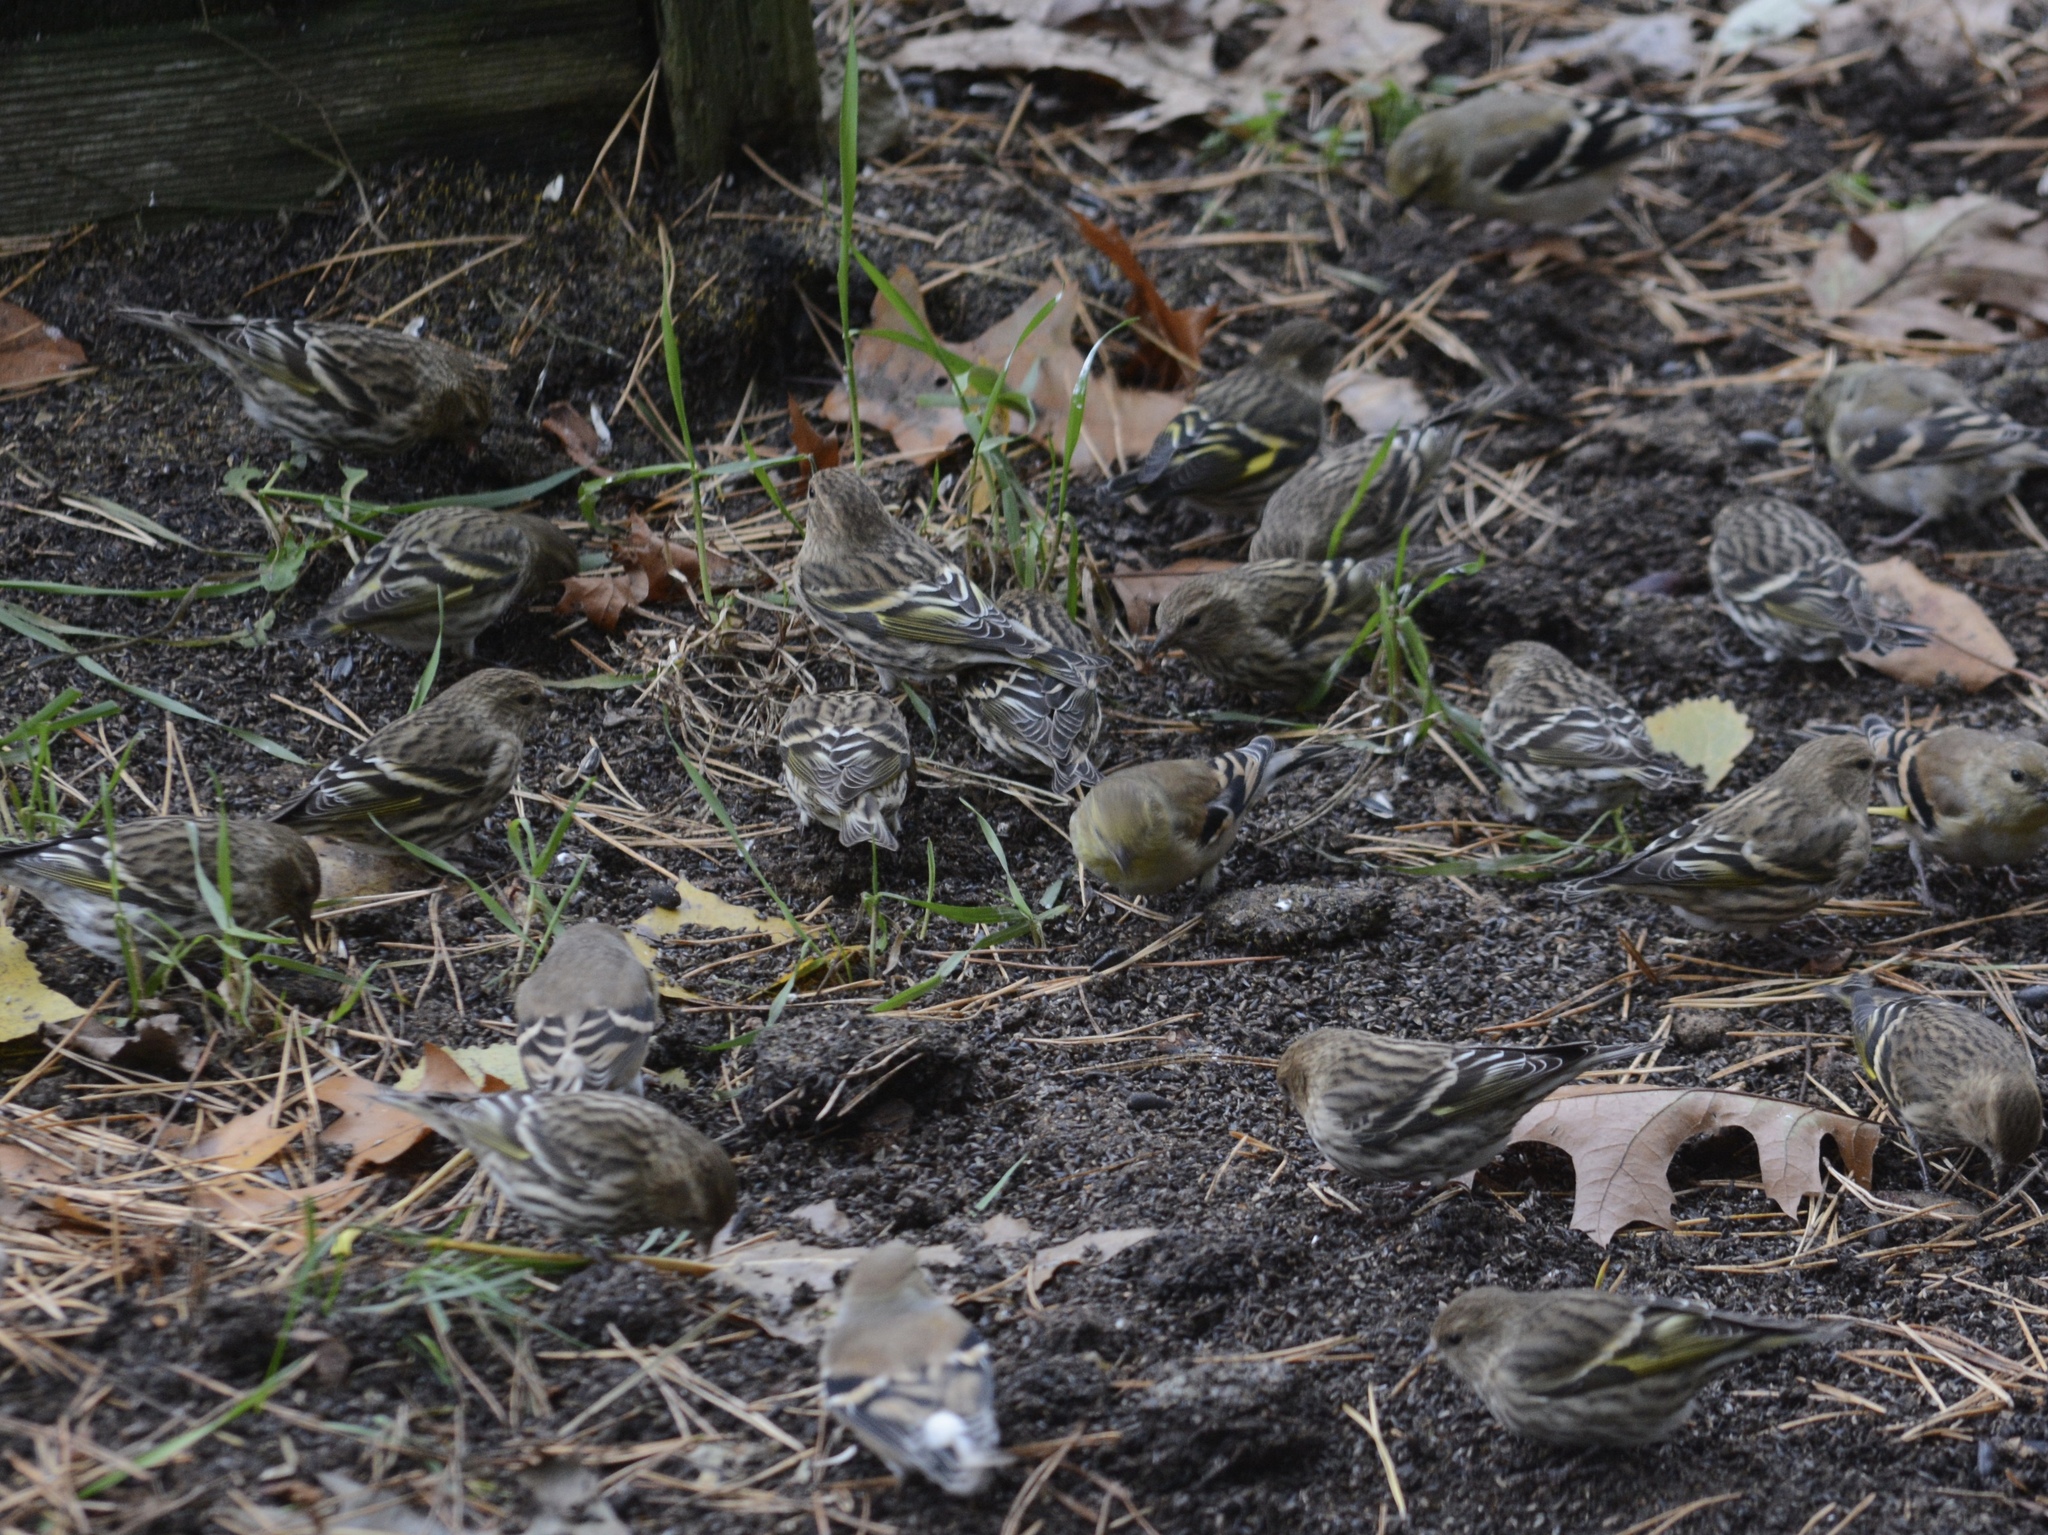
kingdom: Animalia
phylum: Chordata
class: Aves
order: Passeriformes
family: Fringillidae
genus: Spinus
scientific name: Spinus pinus
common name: Pine siskin
